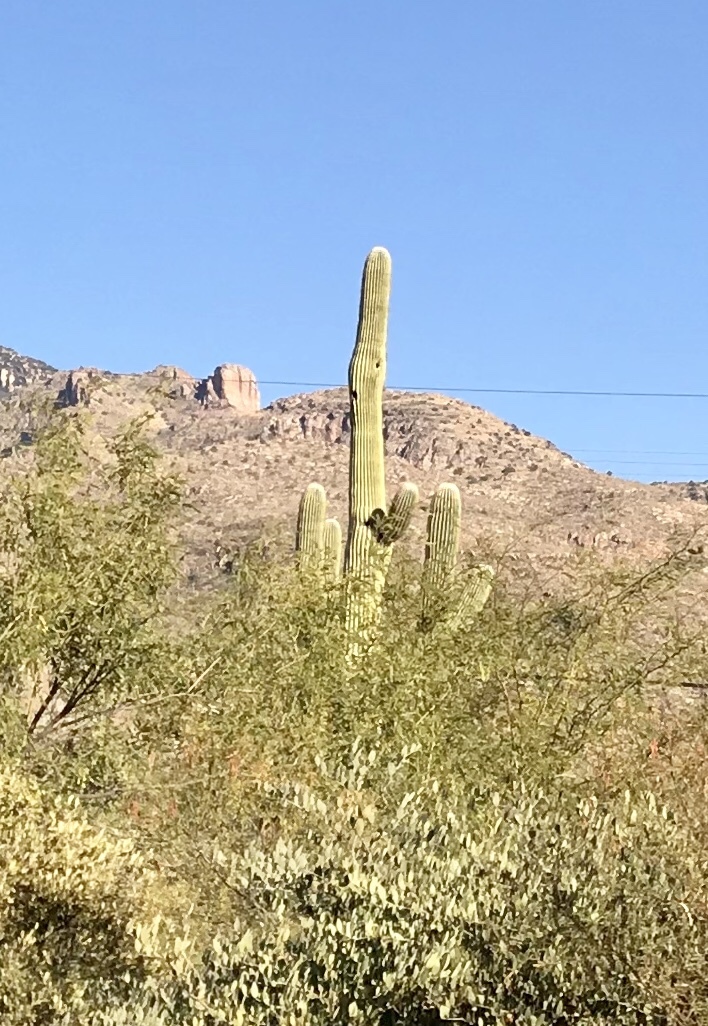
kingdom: Plantae
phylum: Tracheophyta
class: Magnoliopsida
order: Caryophyllales
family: Cactaceae
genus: Carnegiea
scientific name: Carnegiea gigantea
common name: Saguaro
